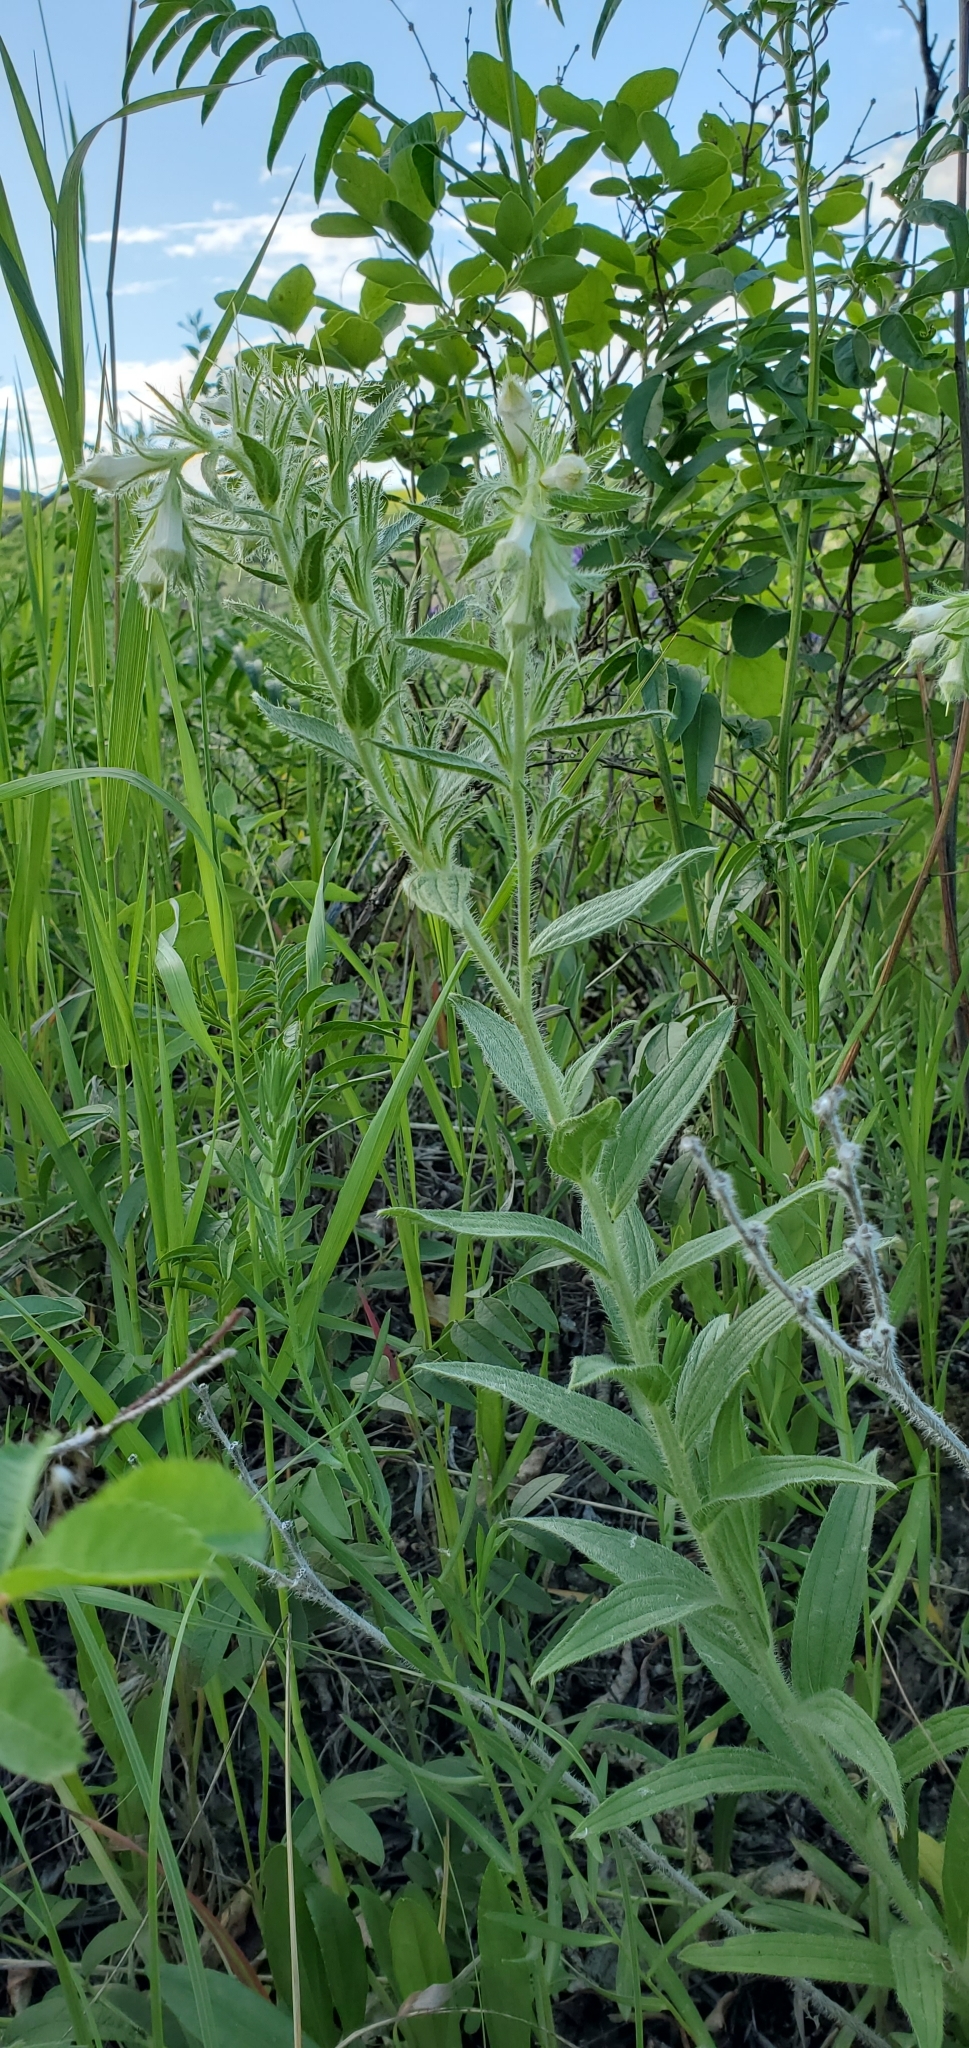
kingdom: Plantae
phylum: Tracheophyta
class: Magnoliopsida
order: Boraginales
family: Boraginaceae
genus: Lithospermum
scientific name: Lithospermum occidentale
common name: Western false gromwell
